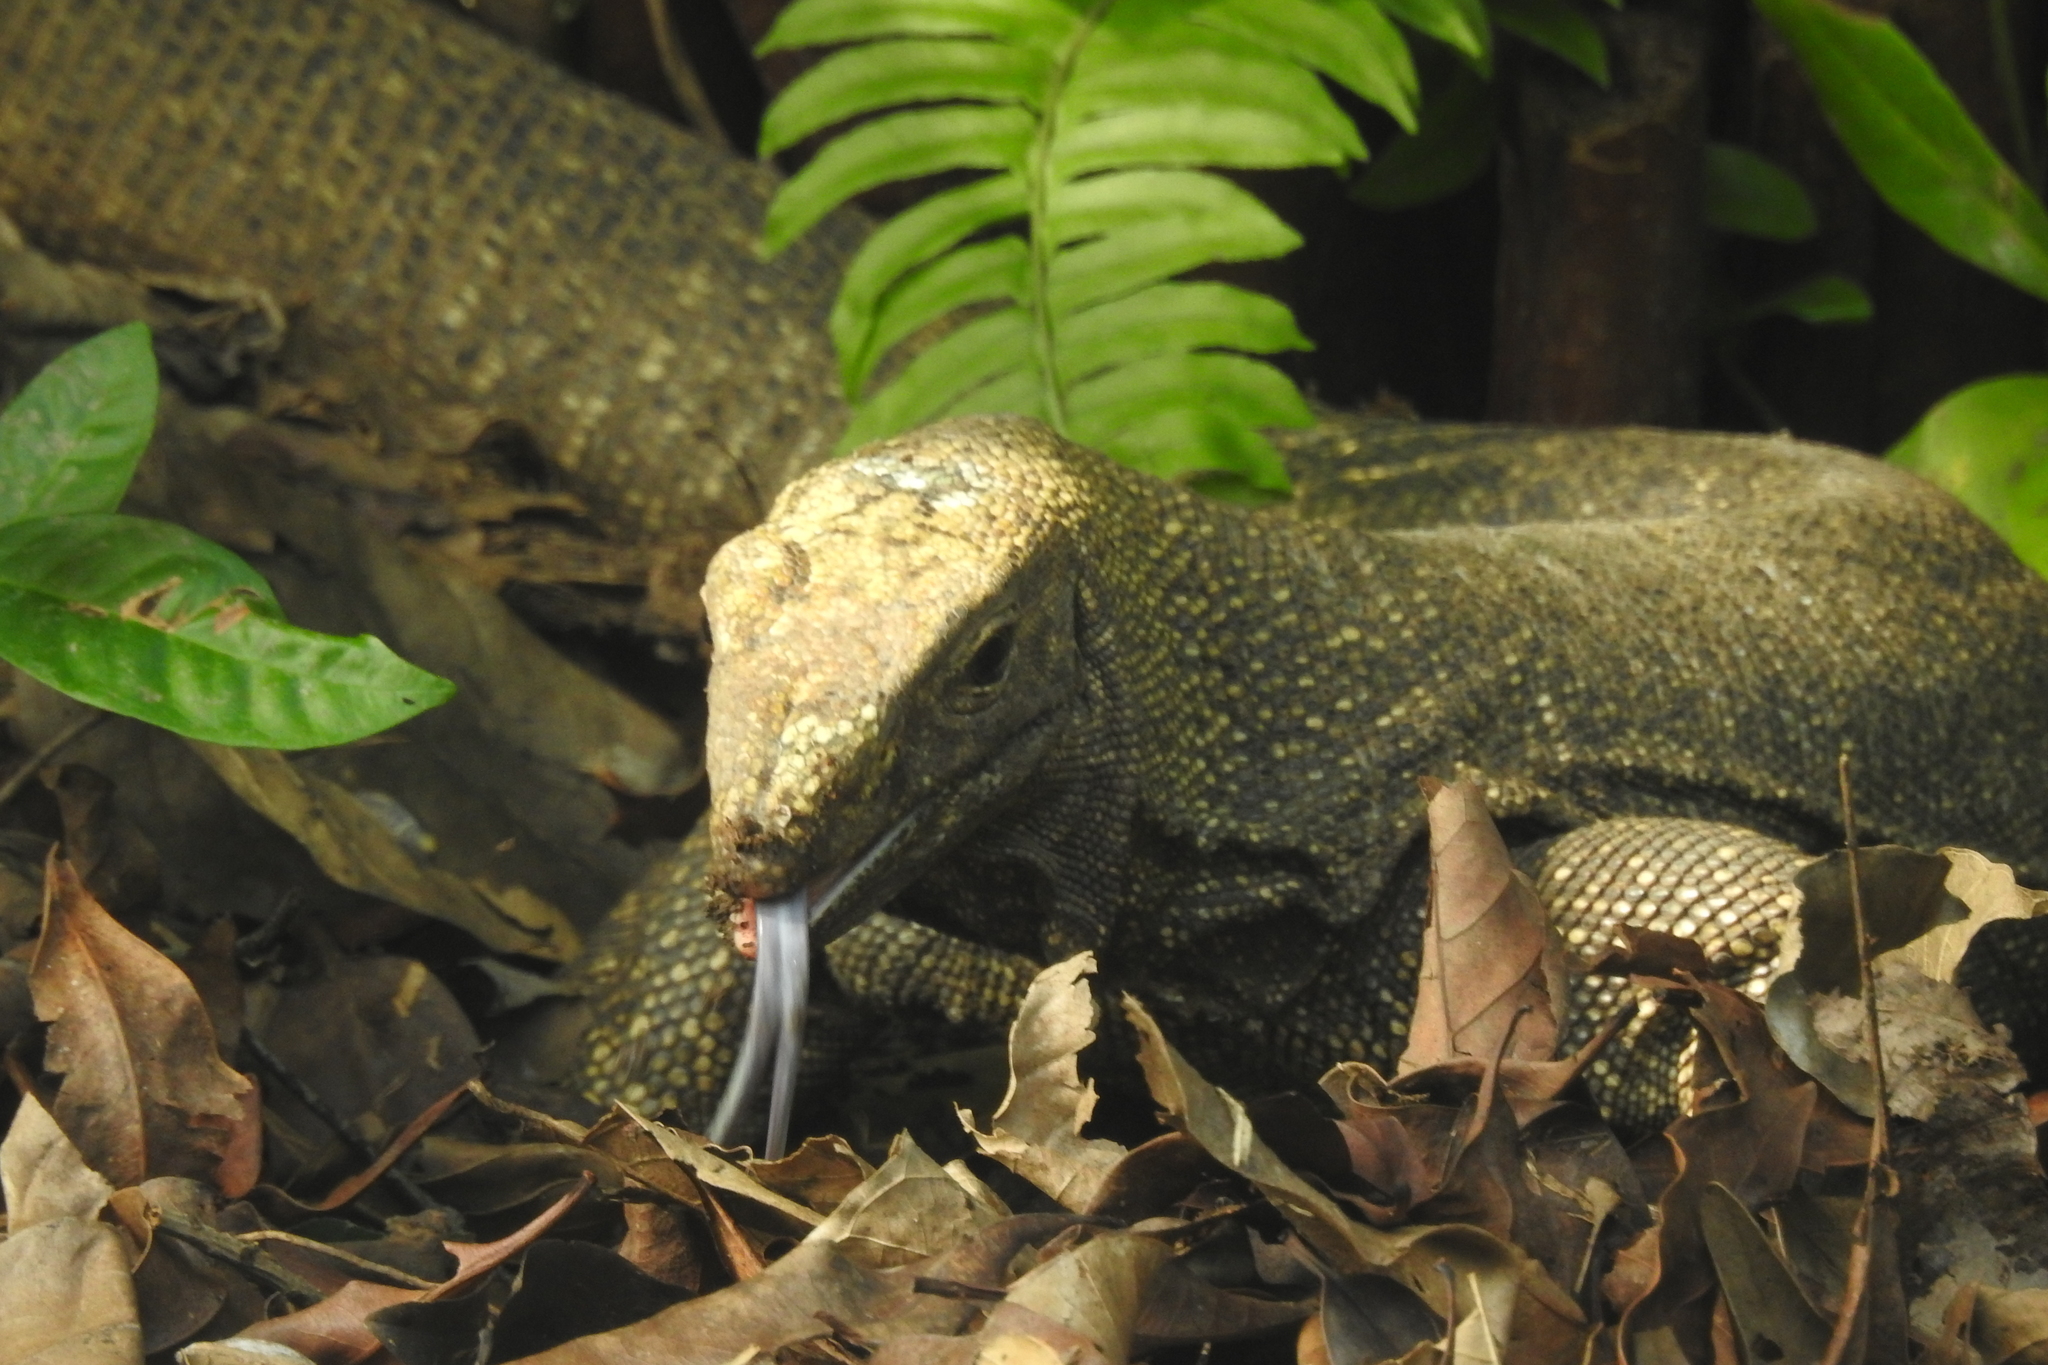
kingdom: Animalia
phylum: Chordata
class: Squamata
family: Varanidae
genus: Varanus
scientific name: Varanus nebulosus
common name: Clouded monitor
